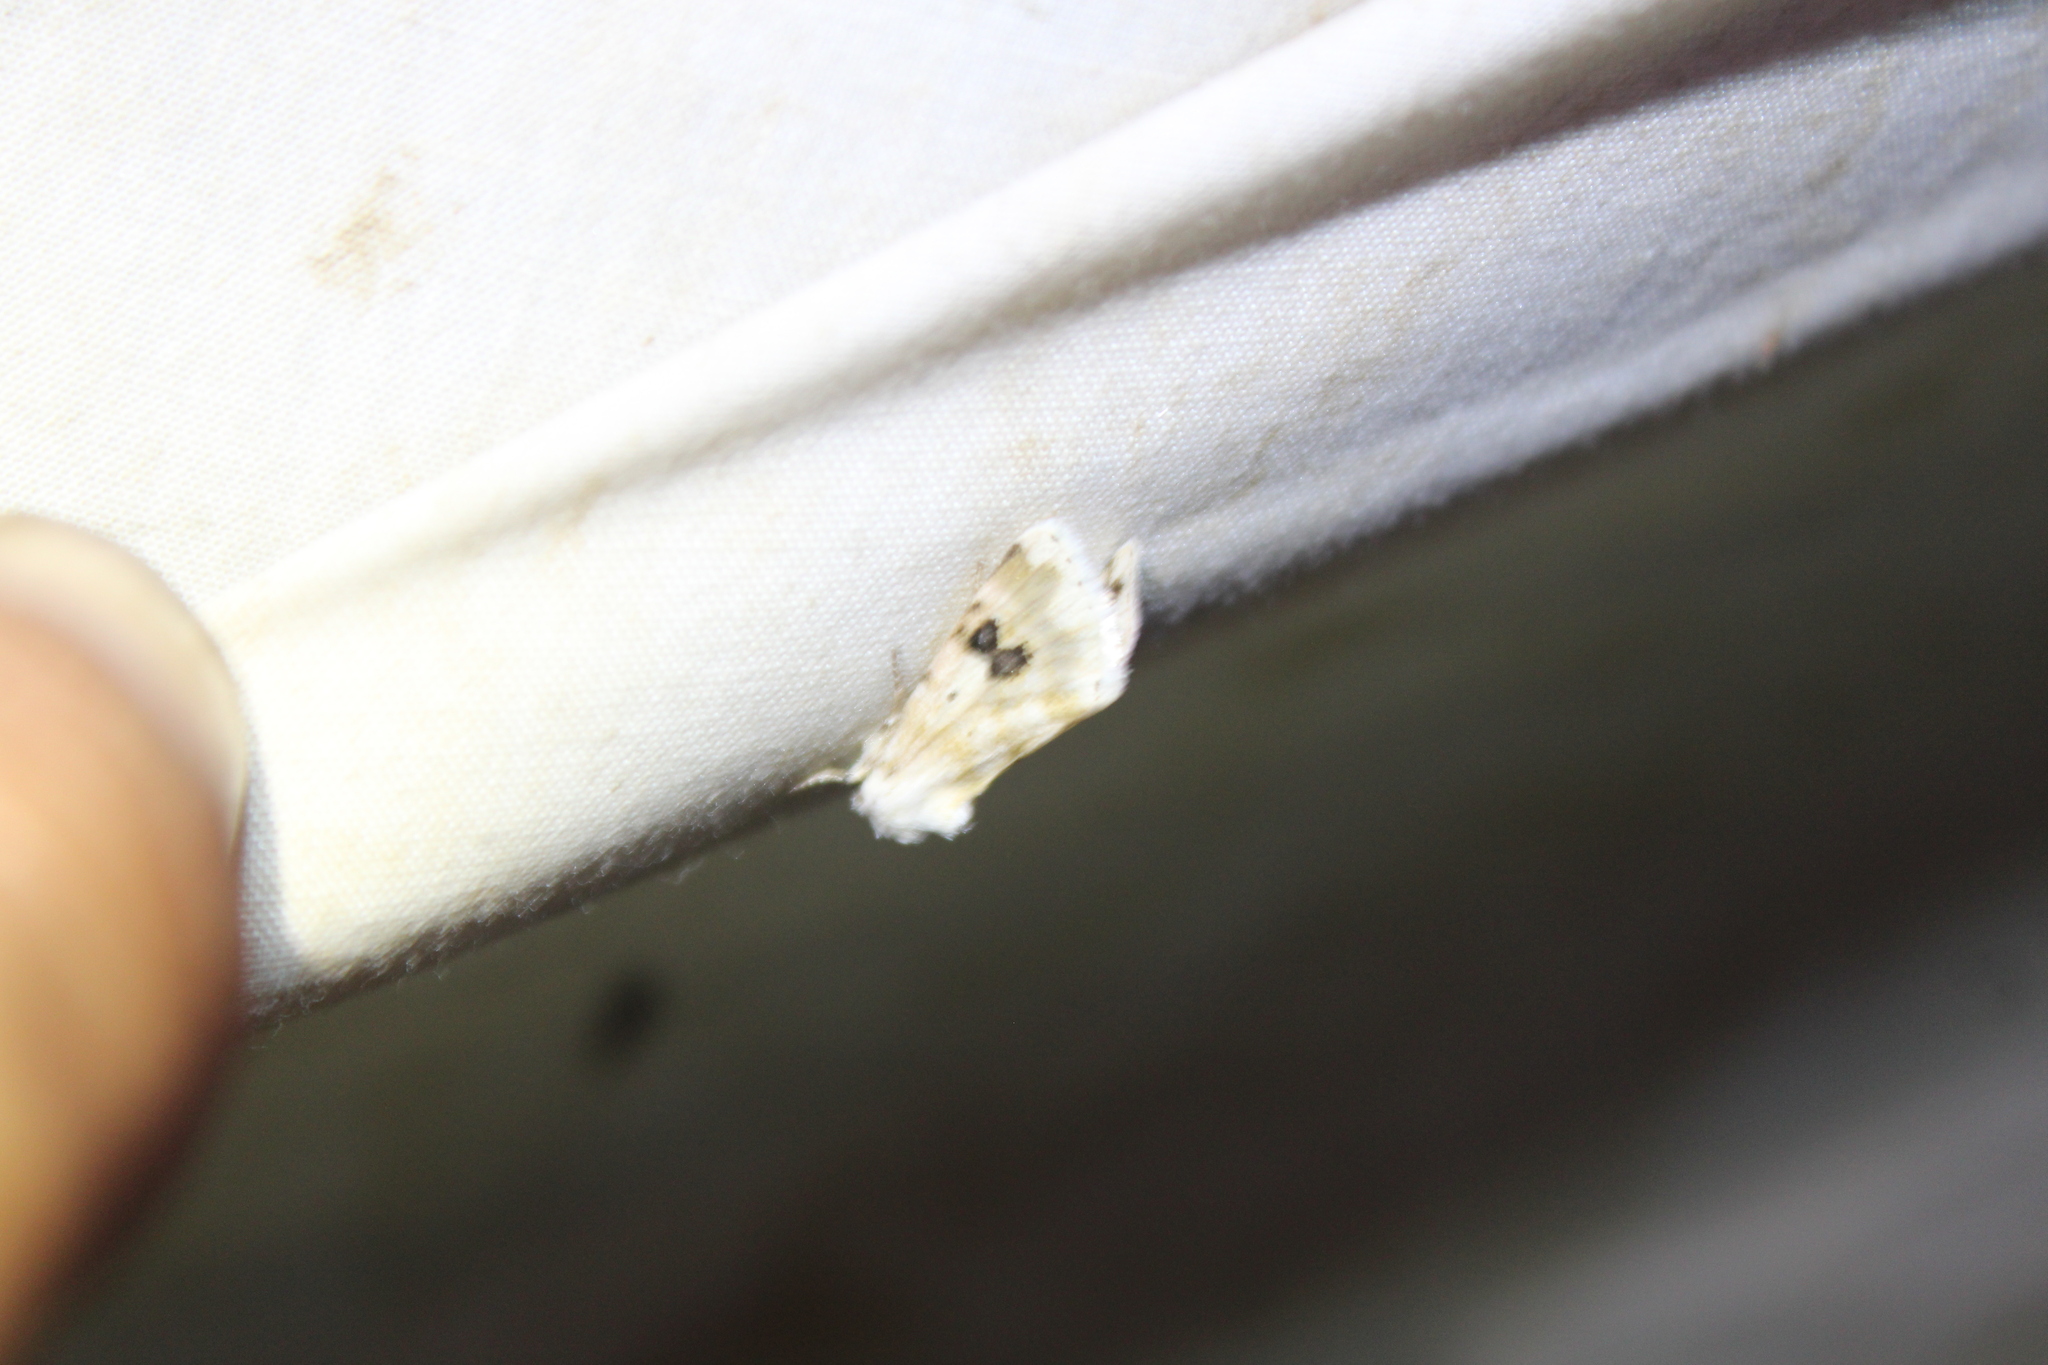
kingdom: Animalia
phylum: Arthropoda
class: Insecta
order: Lepidoptera
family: Noctuidae
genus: Schinia
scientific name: Schinia nundina
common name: Goldenrod flower moth
